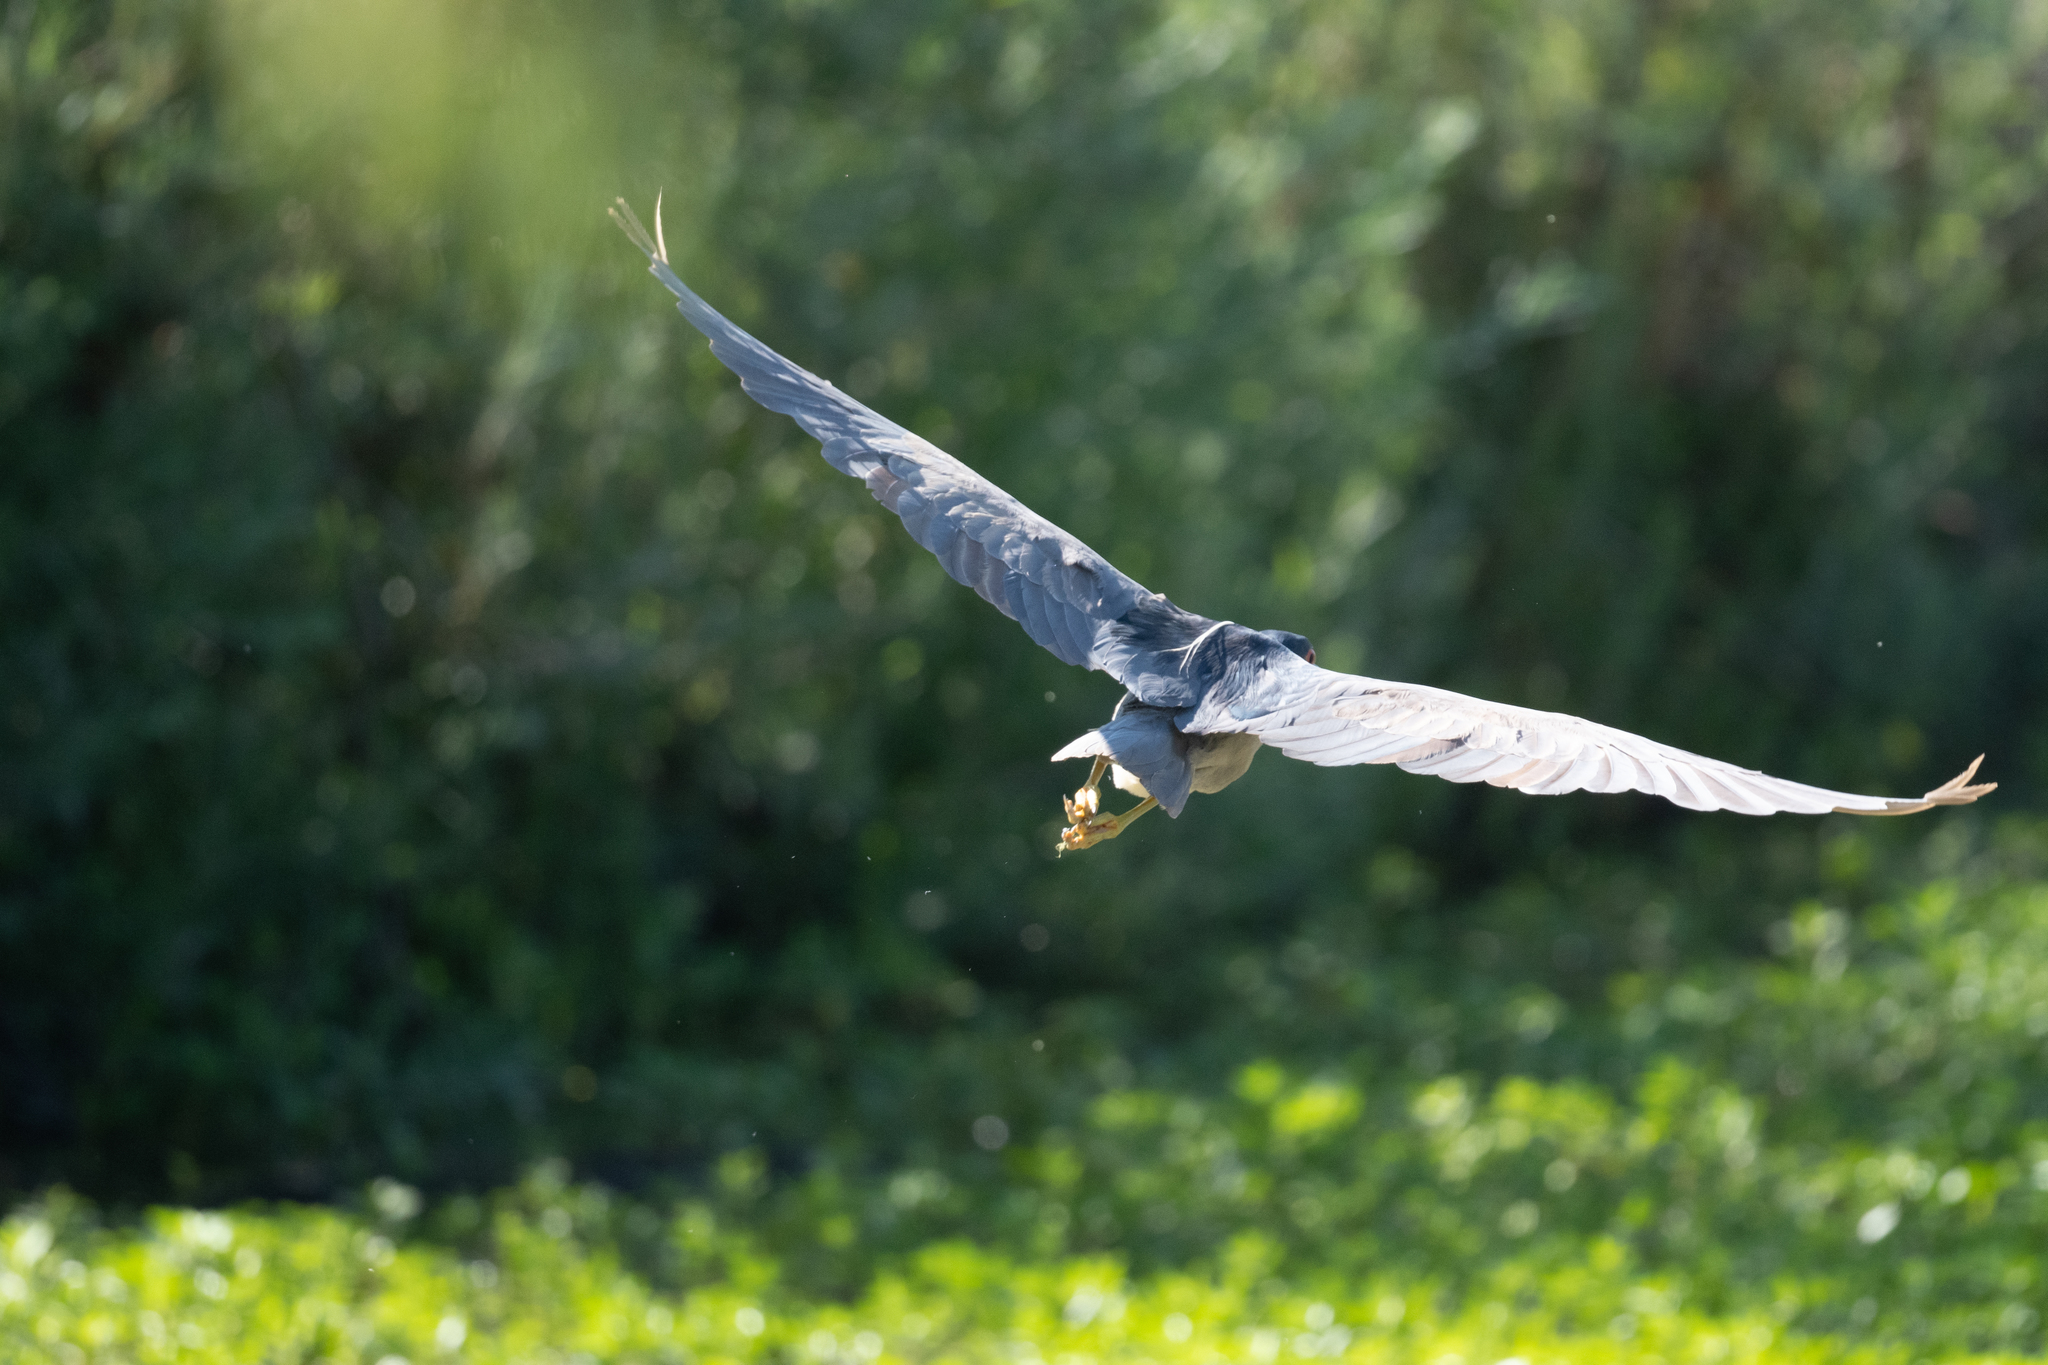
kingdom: Animalia
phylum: Chordata
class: Aves
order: Pelecaniformes
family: Ardeidae
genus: Nycticorax
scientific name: Nycticorax nycticorax
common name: Black-crowned night heron
